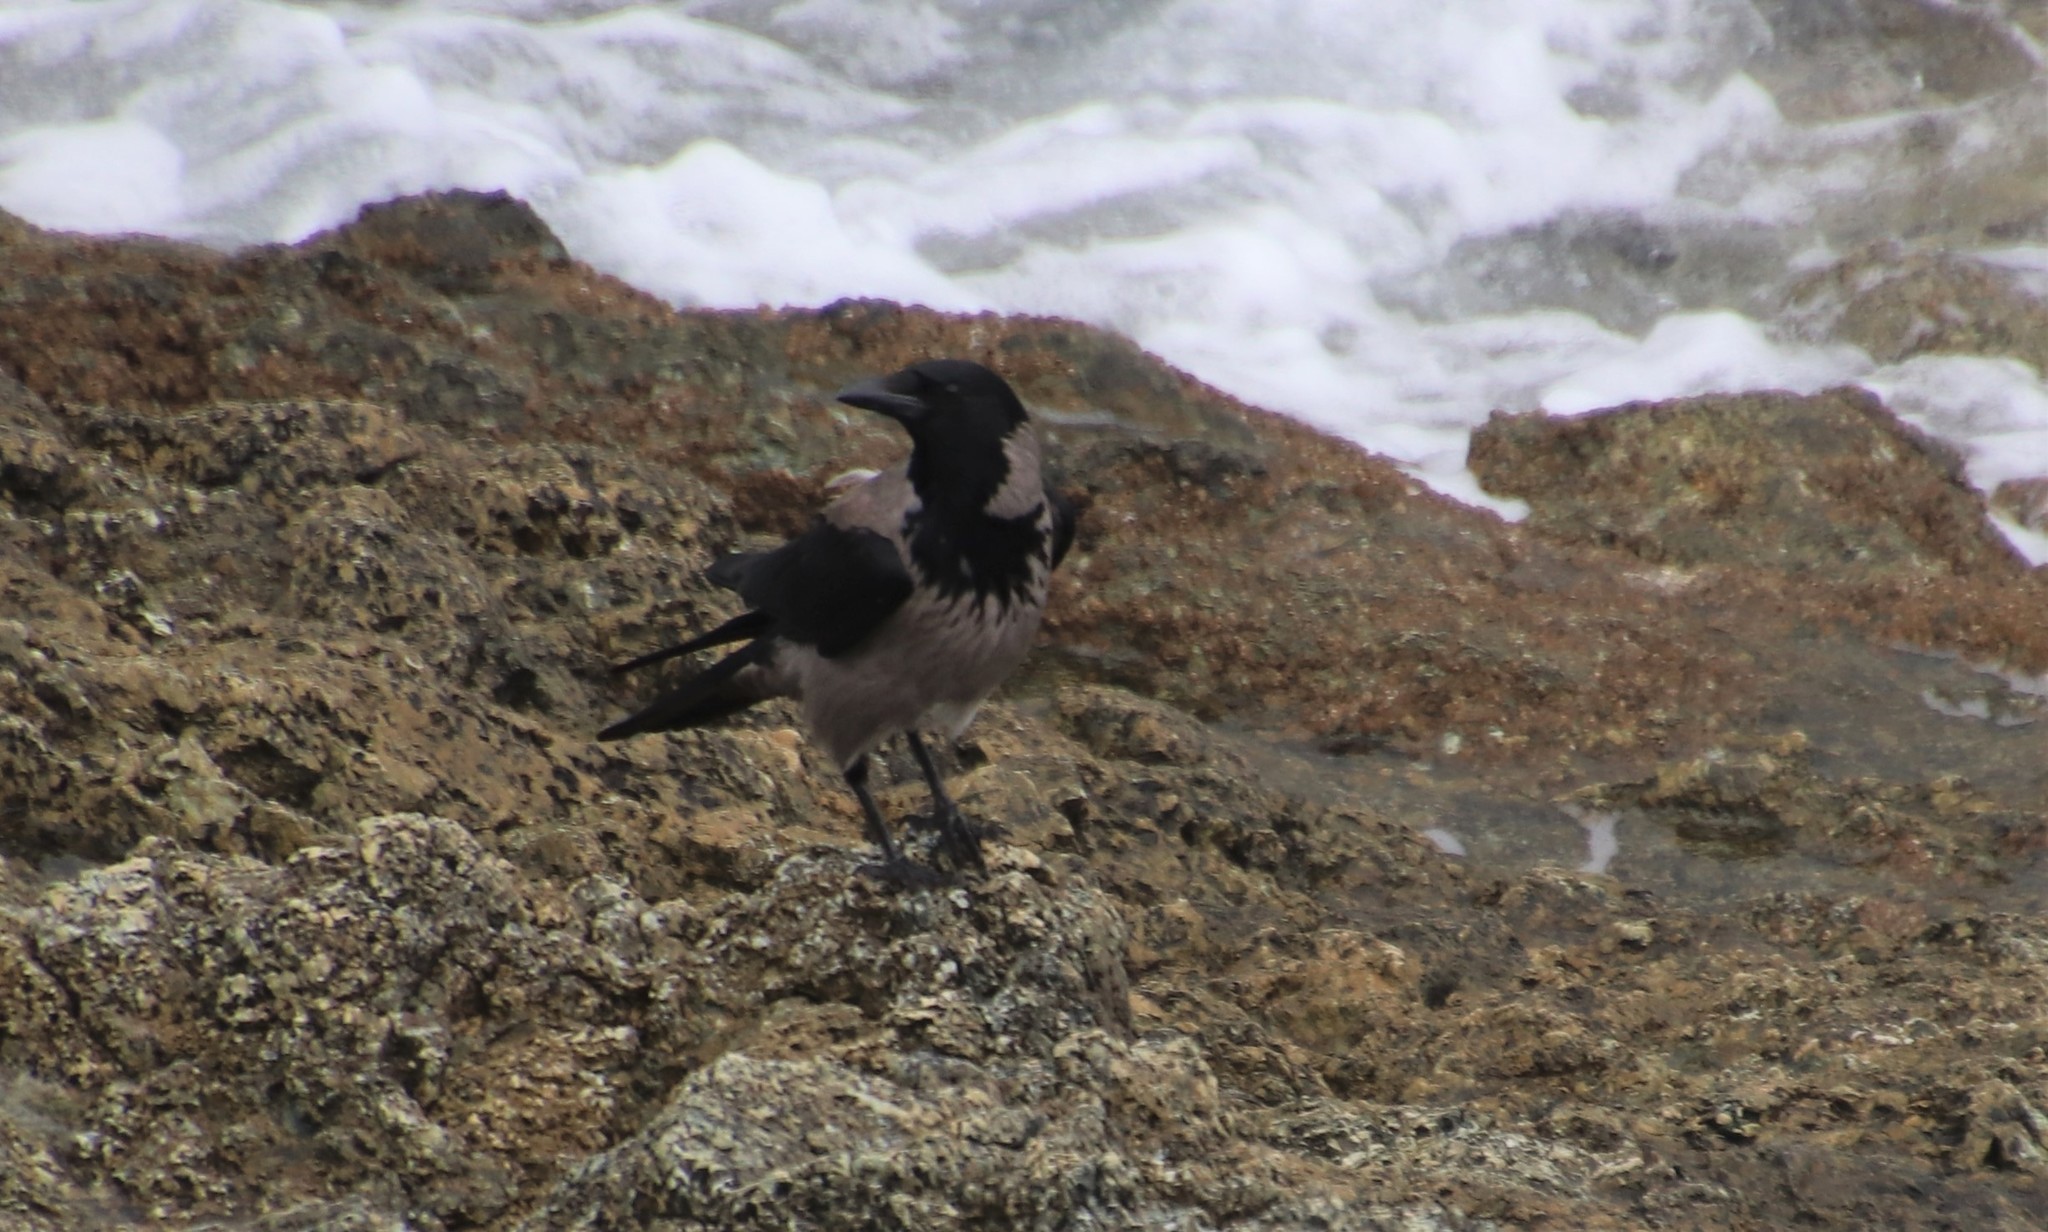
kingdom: Animalia
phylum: Chordata
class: Aves
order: Passeriformes
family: Corvidae
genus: Corvus
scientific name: Corvus cornix
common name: Hooded crow
